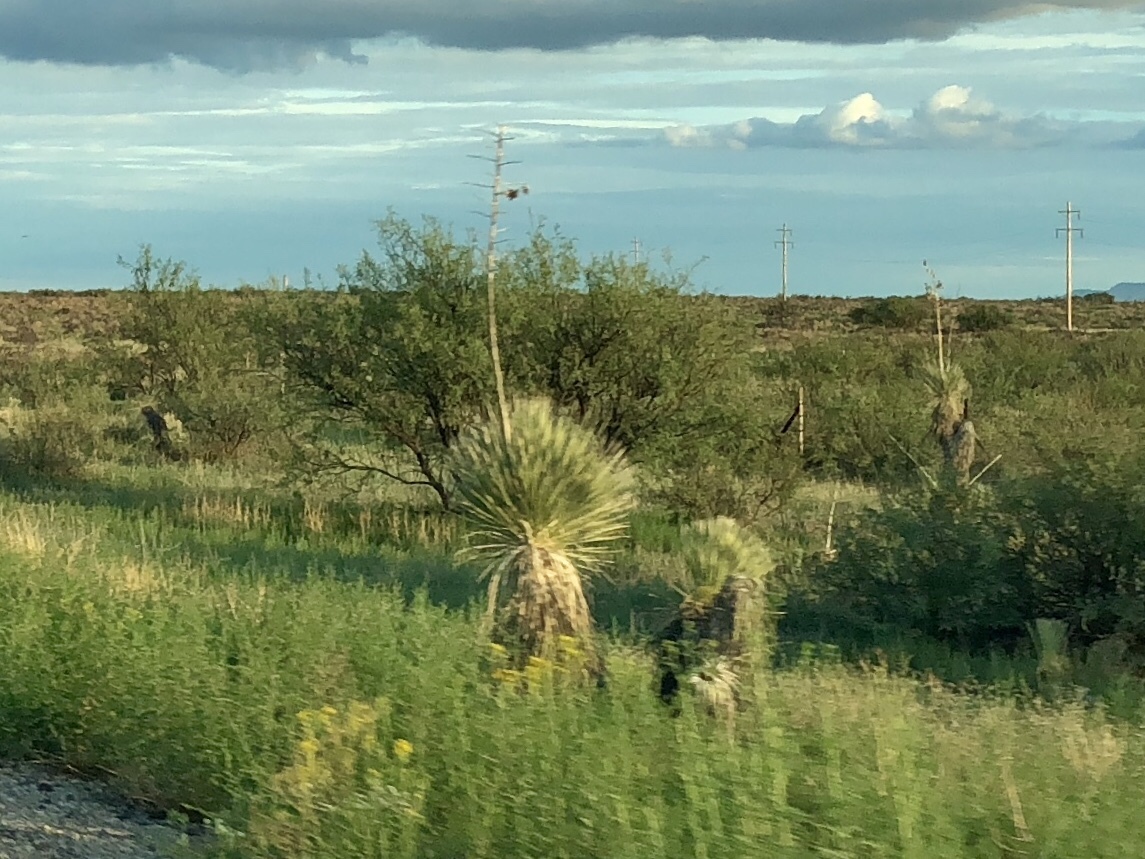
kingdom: Plantae
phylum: Tracheophyta
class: Liliopsida
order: Asparagales
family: Asparagaceae
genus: Yucca
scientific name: Yucca elata
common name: Palmella
